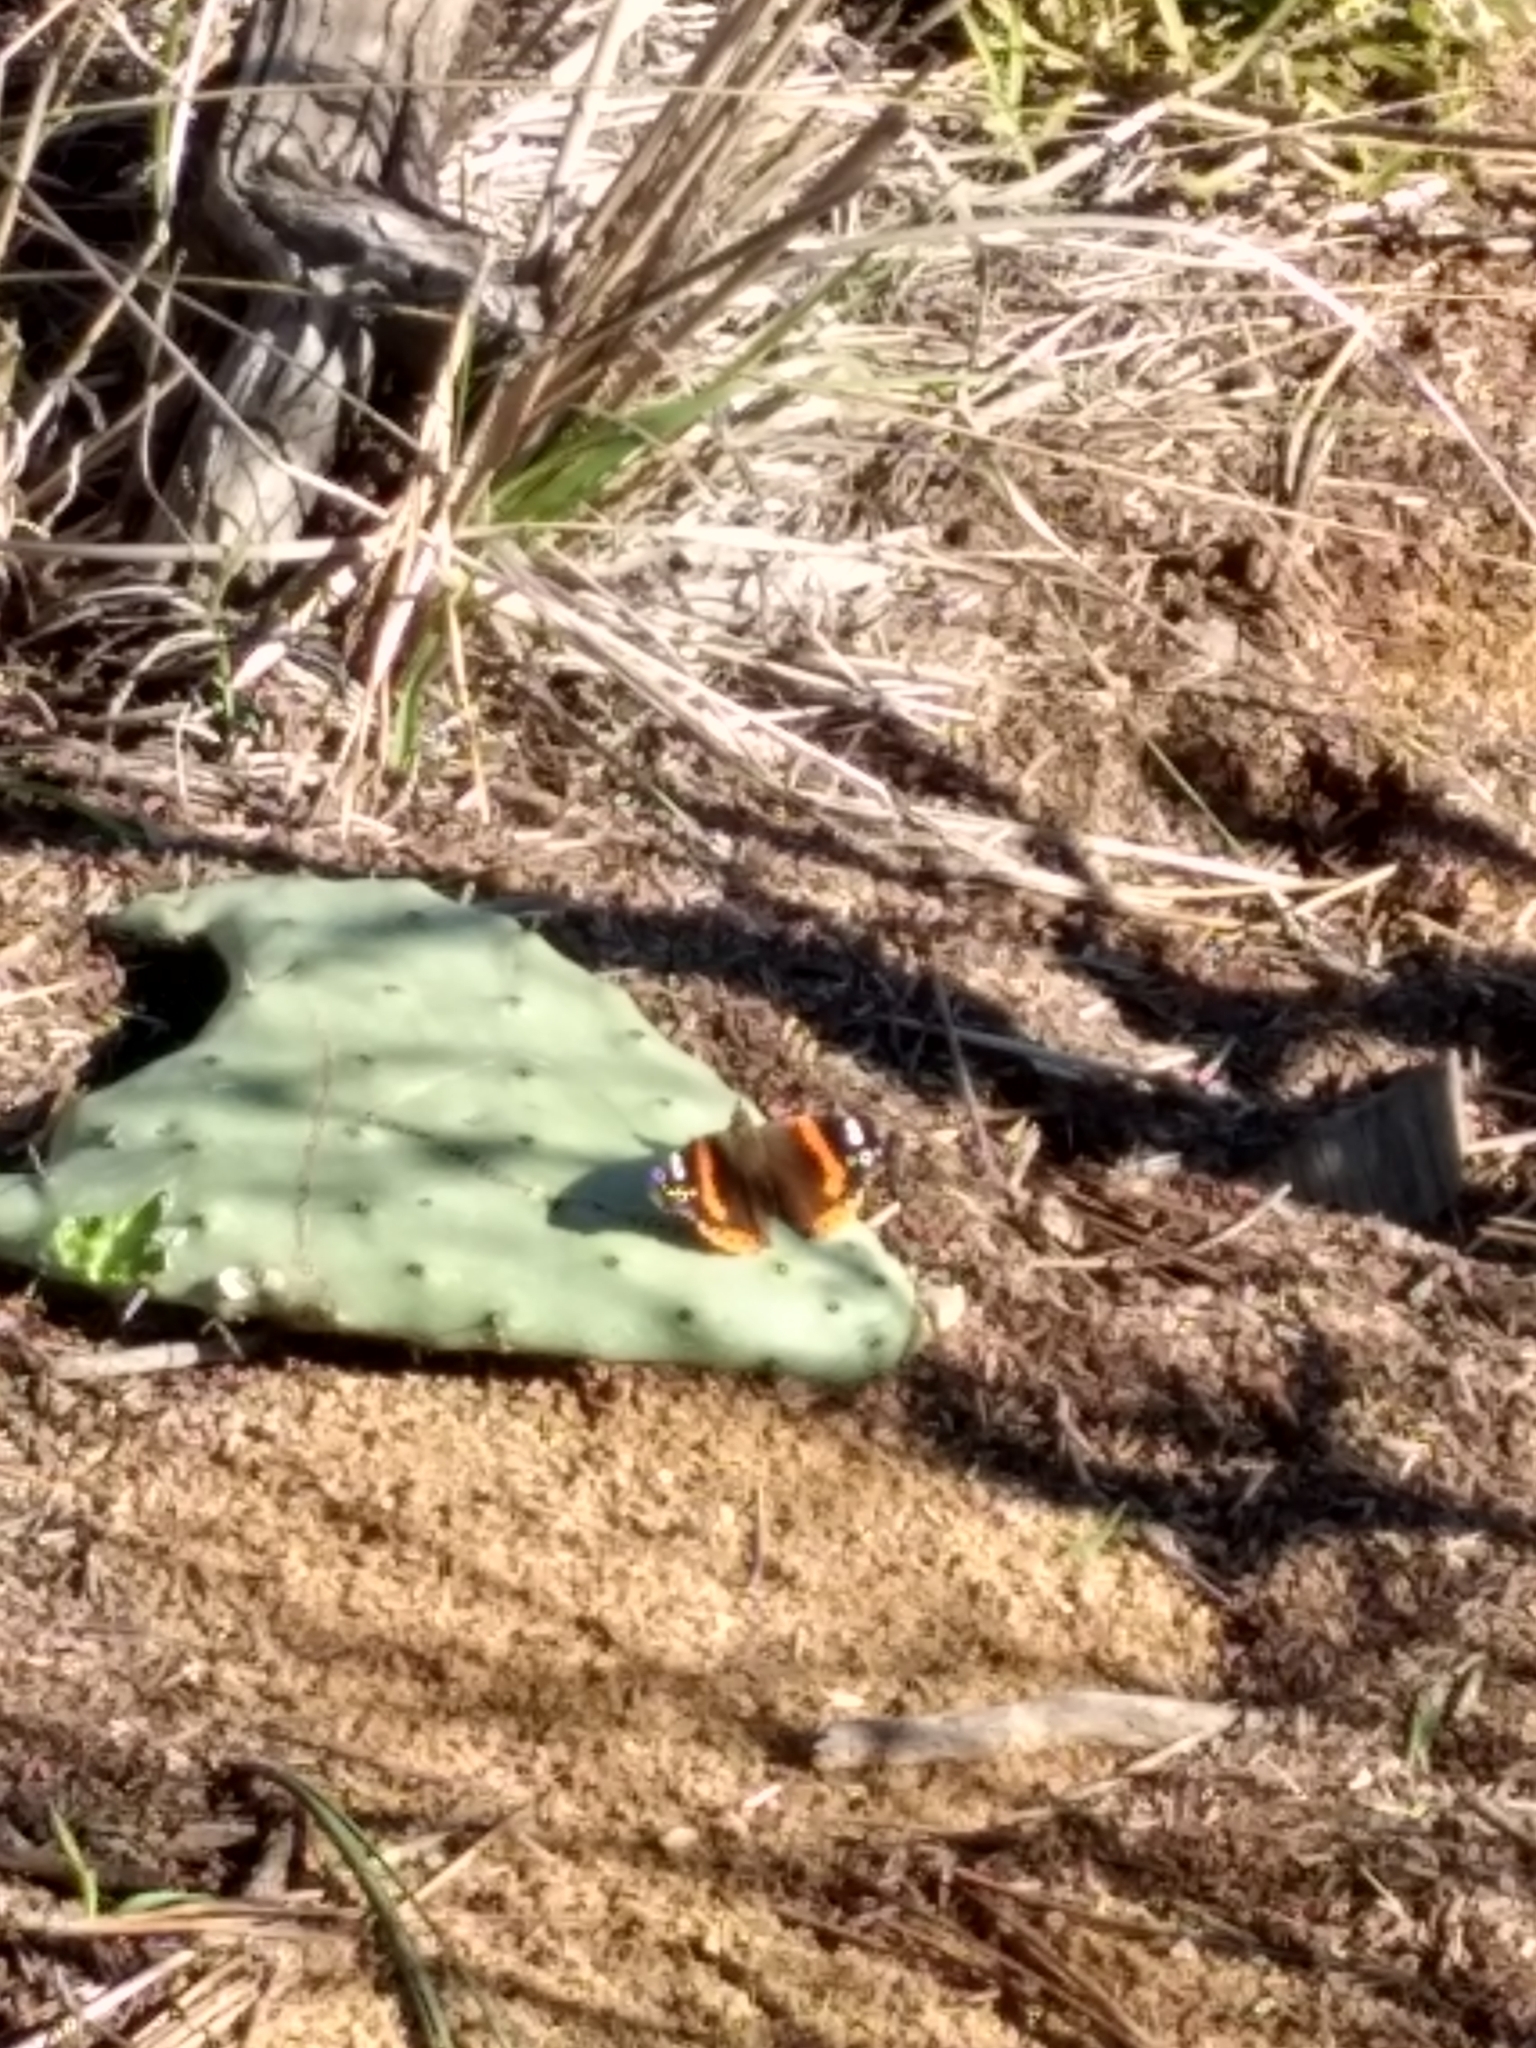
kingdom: Animalia
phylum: Arthropoda
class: Insecta
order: Lepidoptera
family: Nymphalidae
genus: Vanessa
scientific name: Vanessa atalanta
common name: Red admiral
